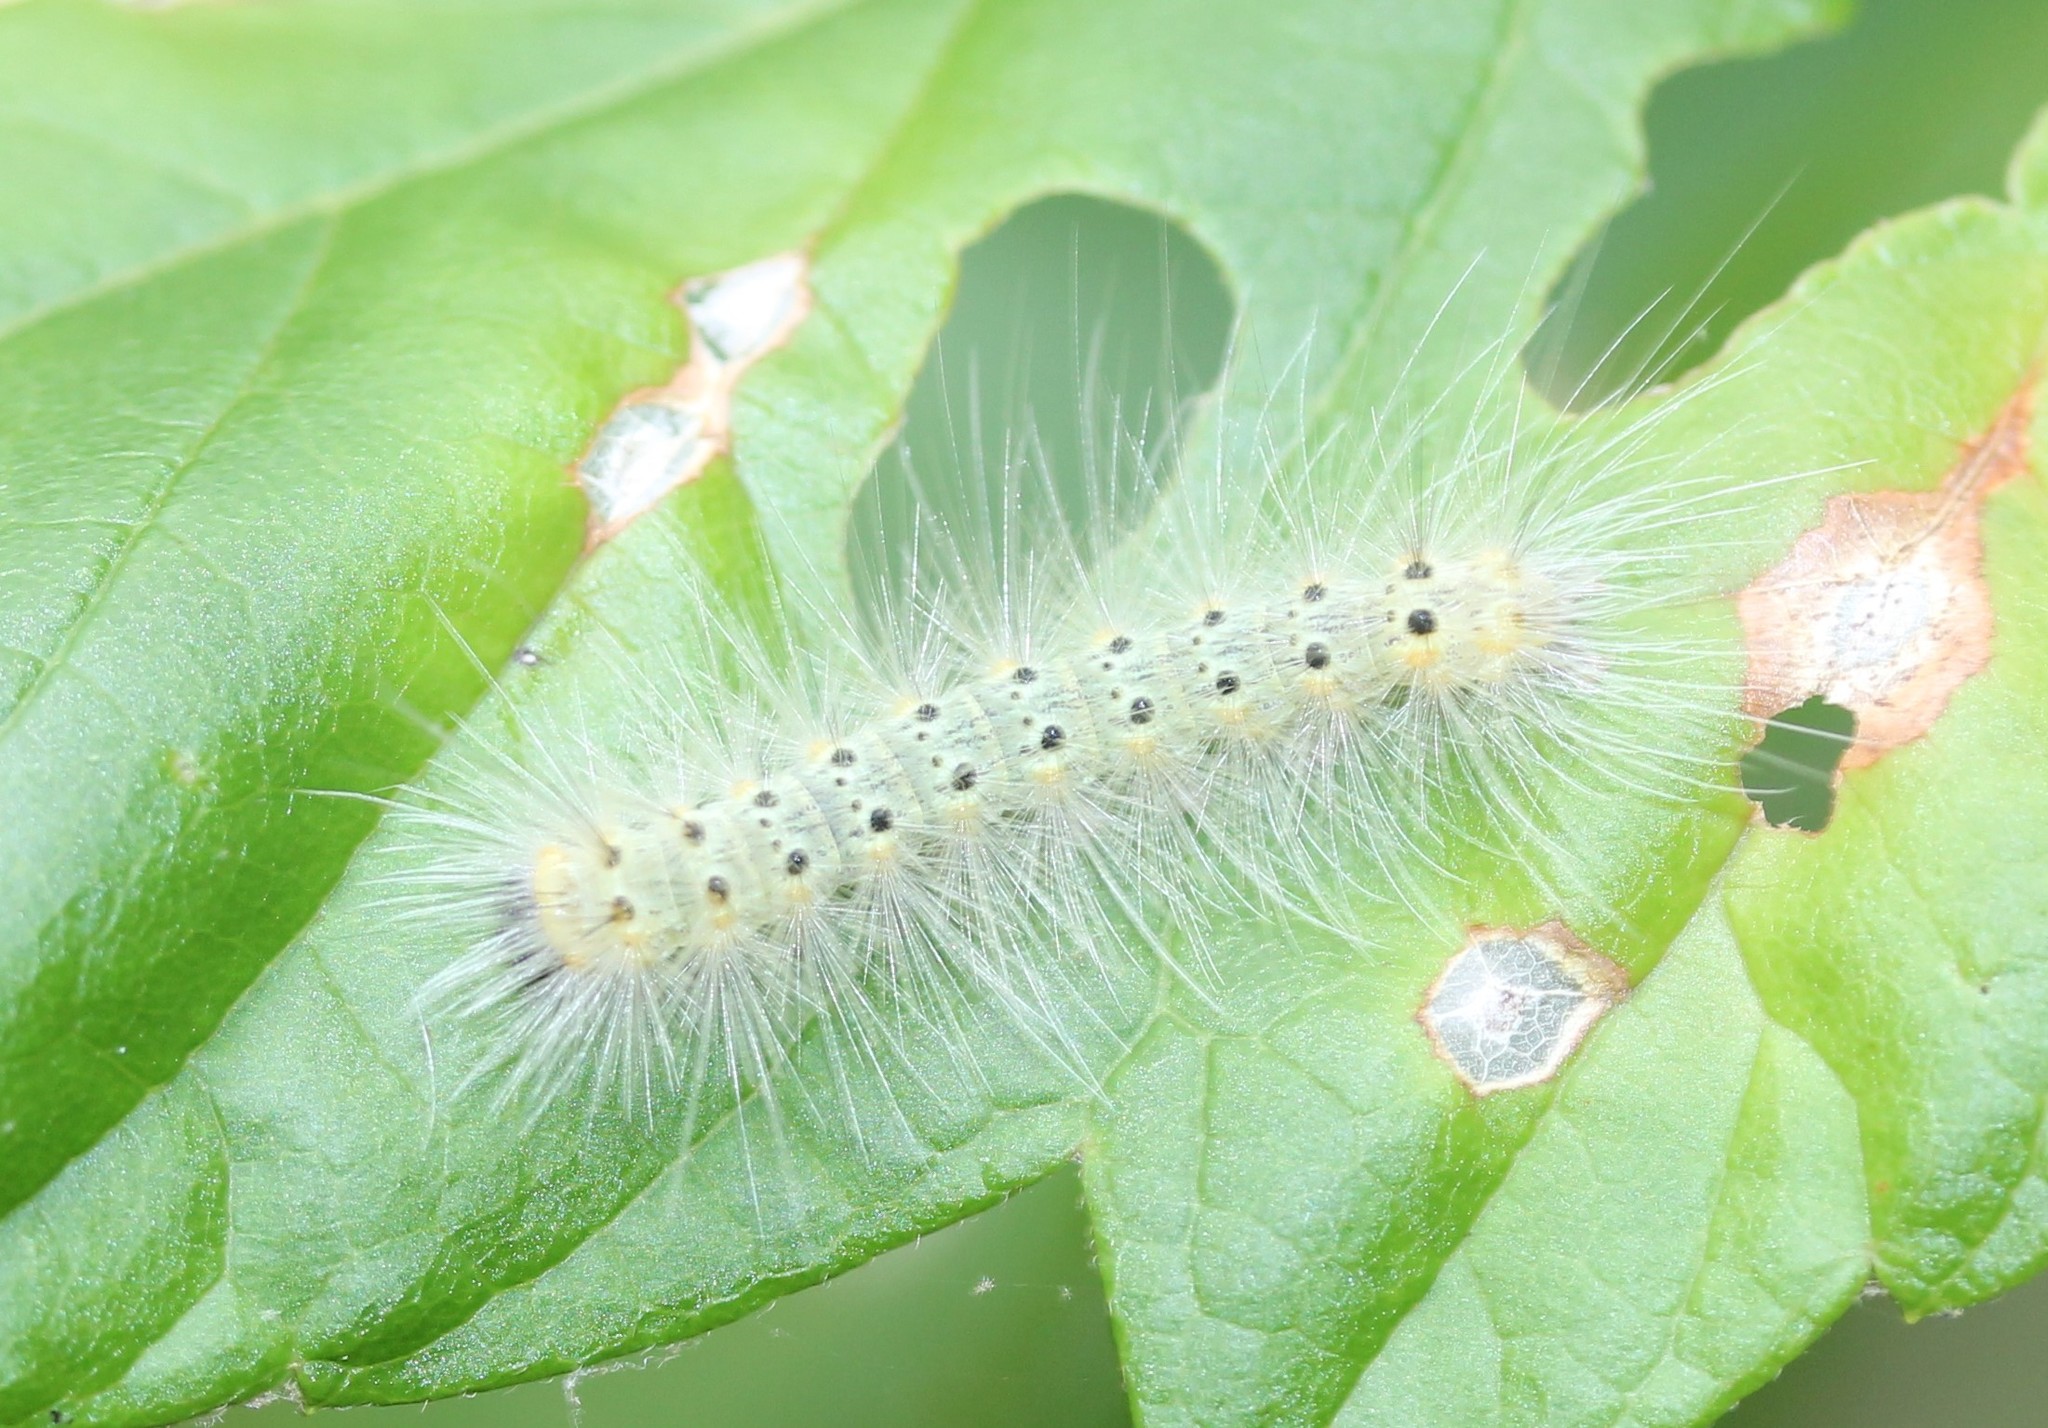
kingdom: Animalia
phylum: Arthropoda
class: Insecta
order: Lepidoptera
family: Erebidae
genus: Hyphantria
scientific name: Hyphantria cunea
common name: American white moth
